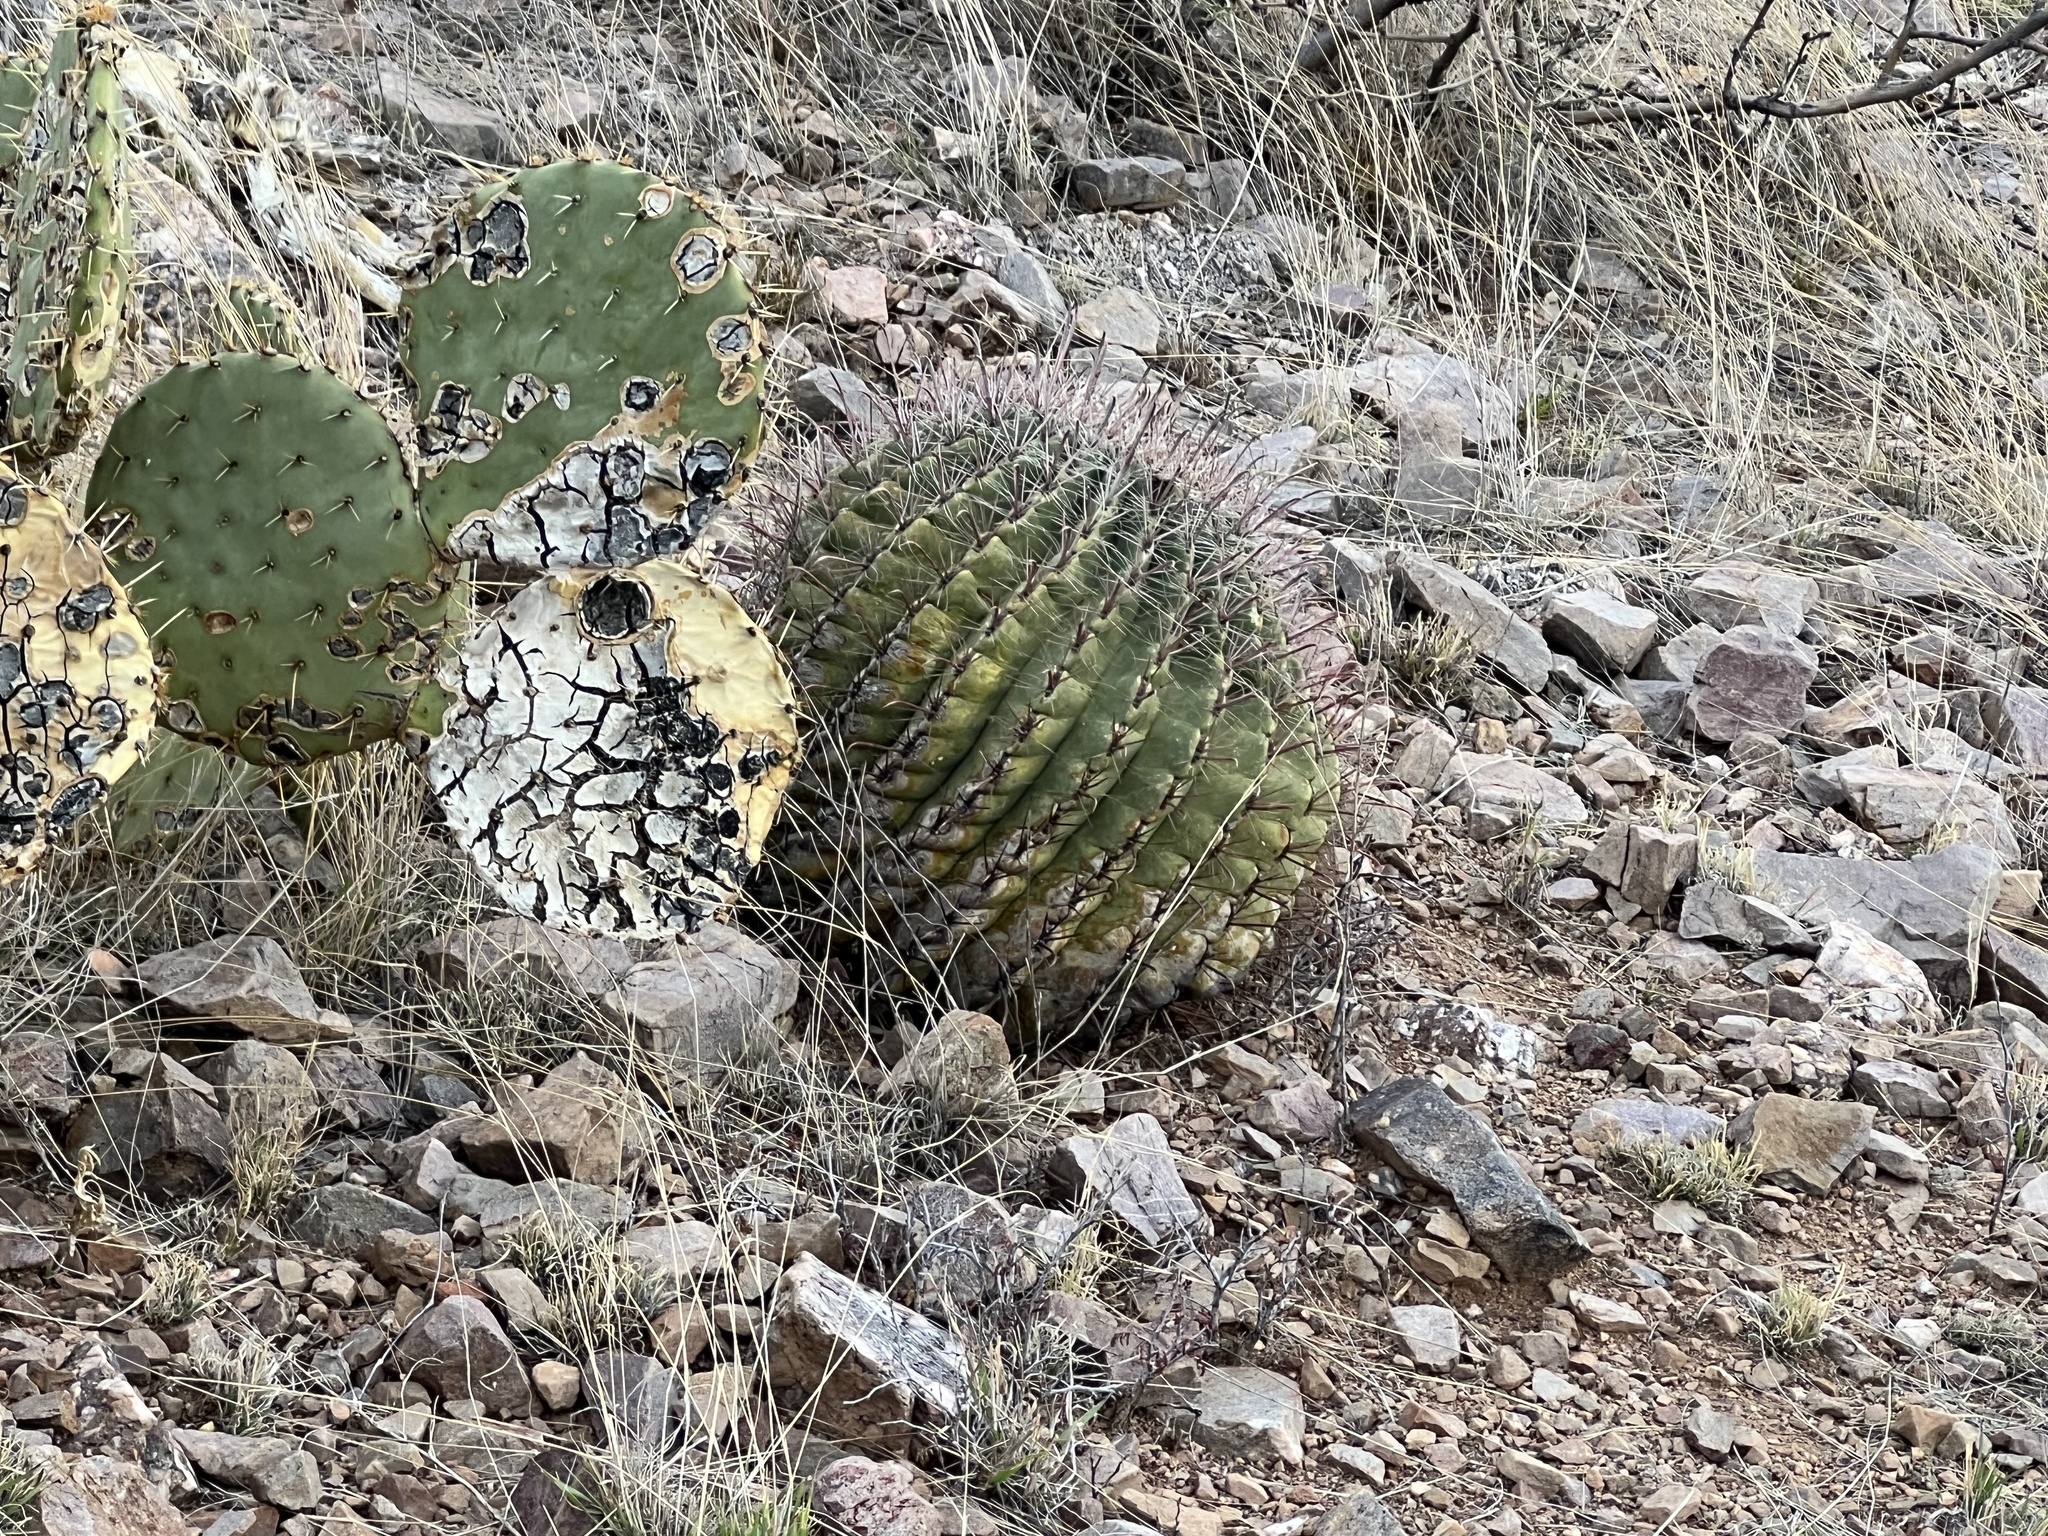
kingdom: Plantae
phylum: Tracheophyta
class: Magnoliopsida
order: Caryophyllales
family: Cactaceae
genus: Ferocactus
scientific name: Ferocactus wislizeni
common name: Candy barrel cactus
